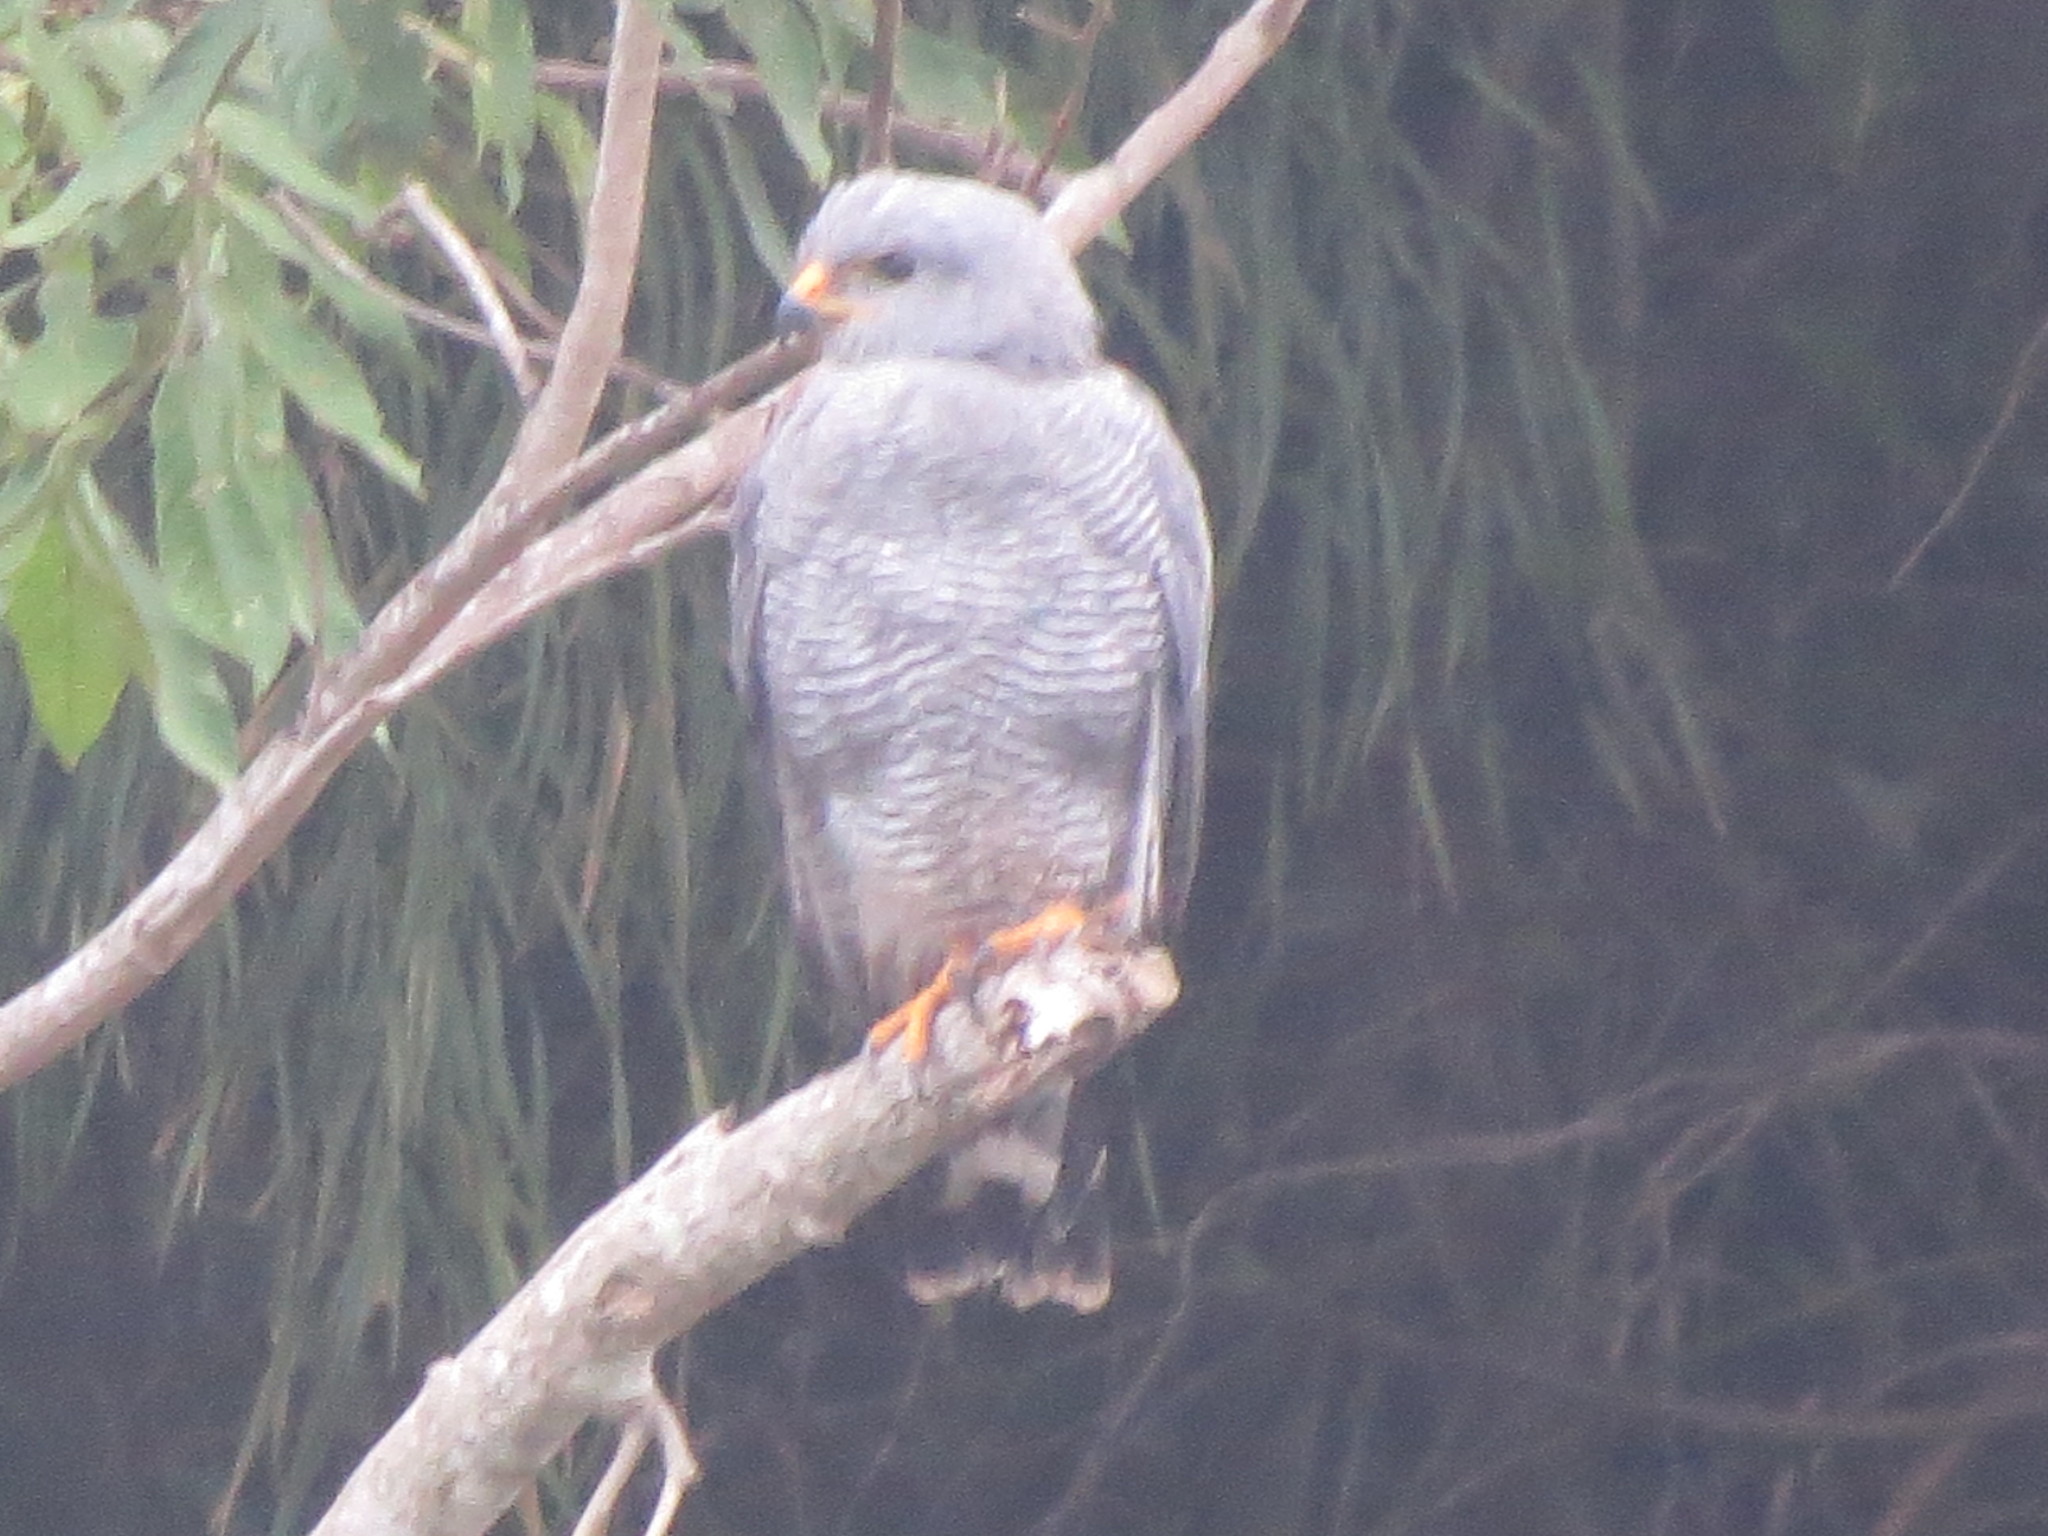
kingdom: Animalia
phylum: Chordata
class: Aves
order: Accipitriformes
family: Accipitridae
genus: Buteo
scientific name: Buteo nitidus
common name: Grey-lined hawk
